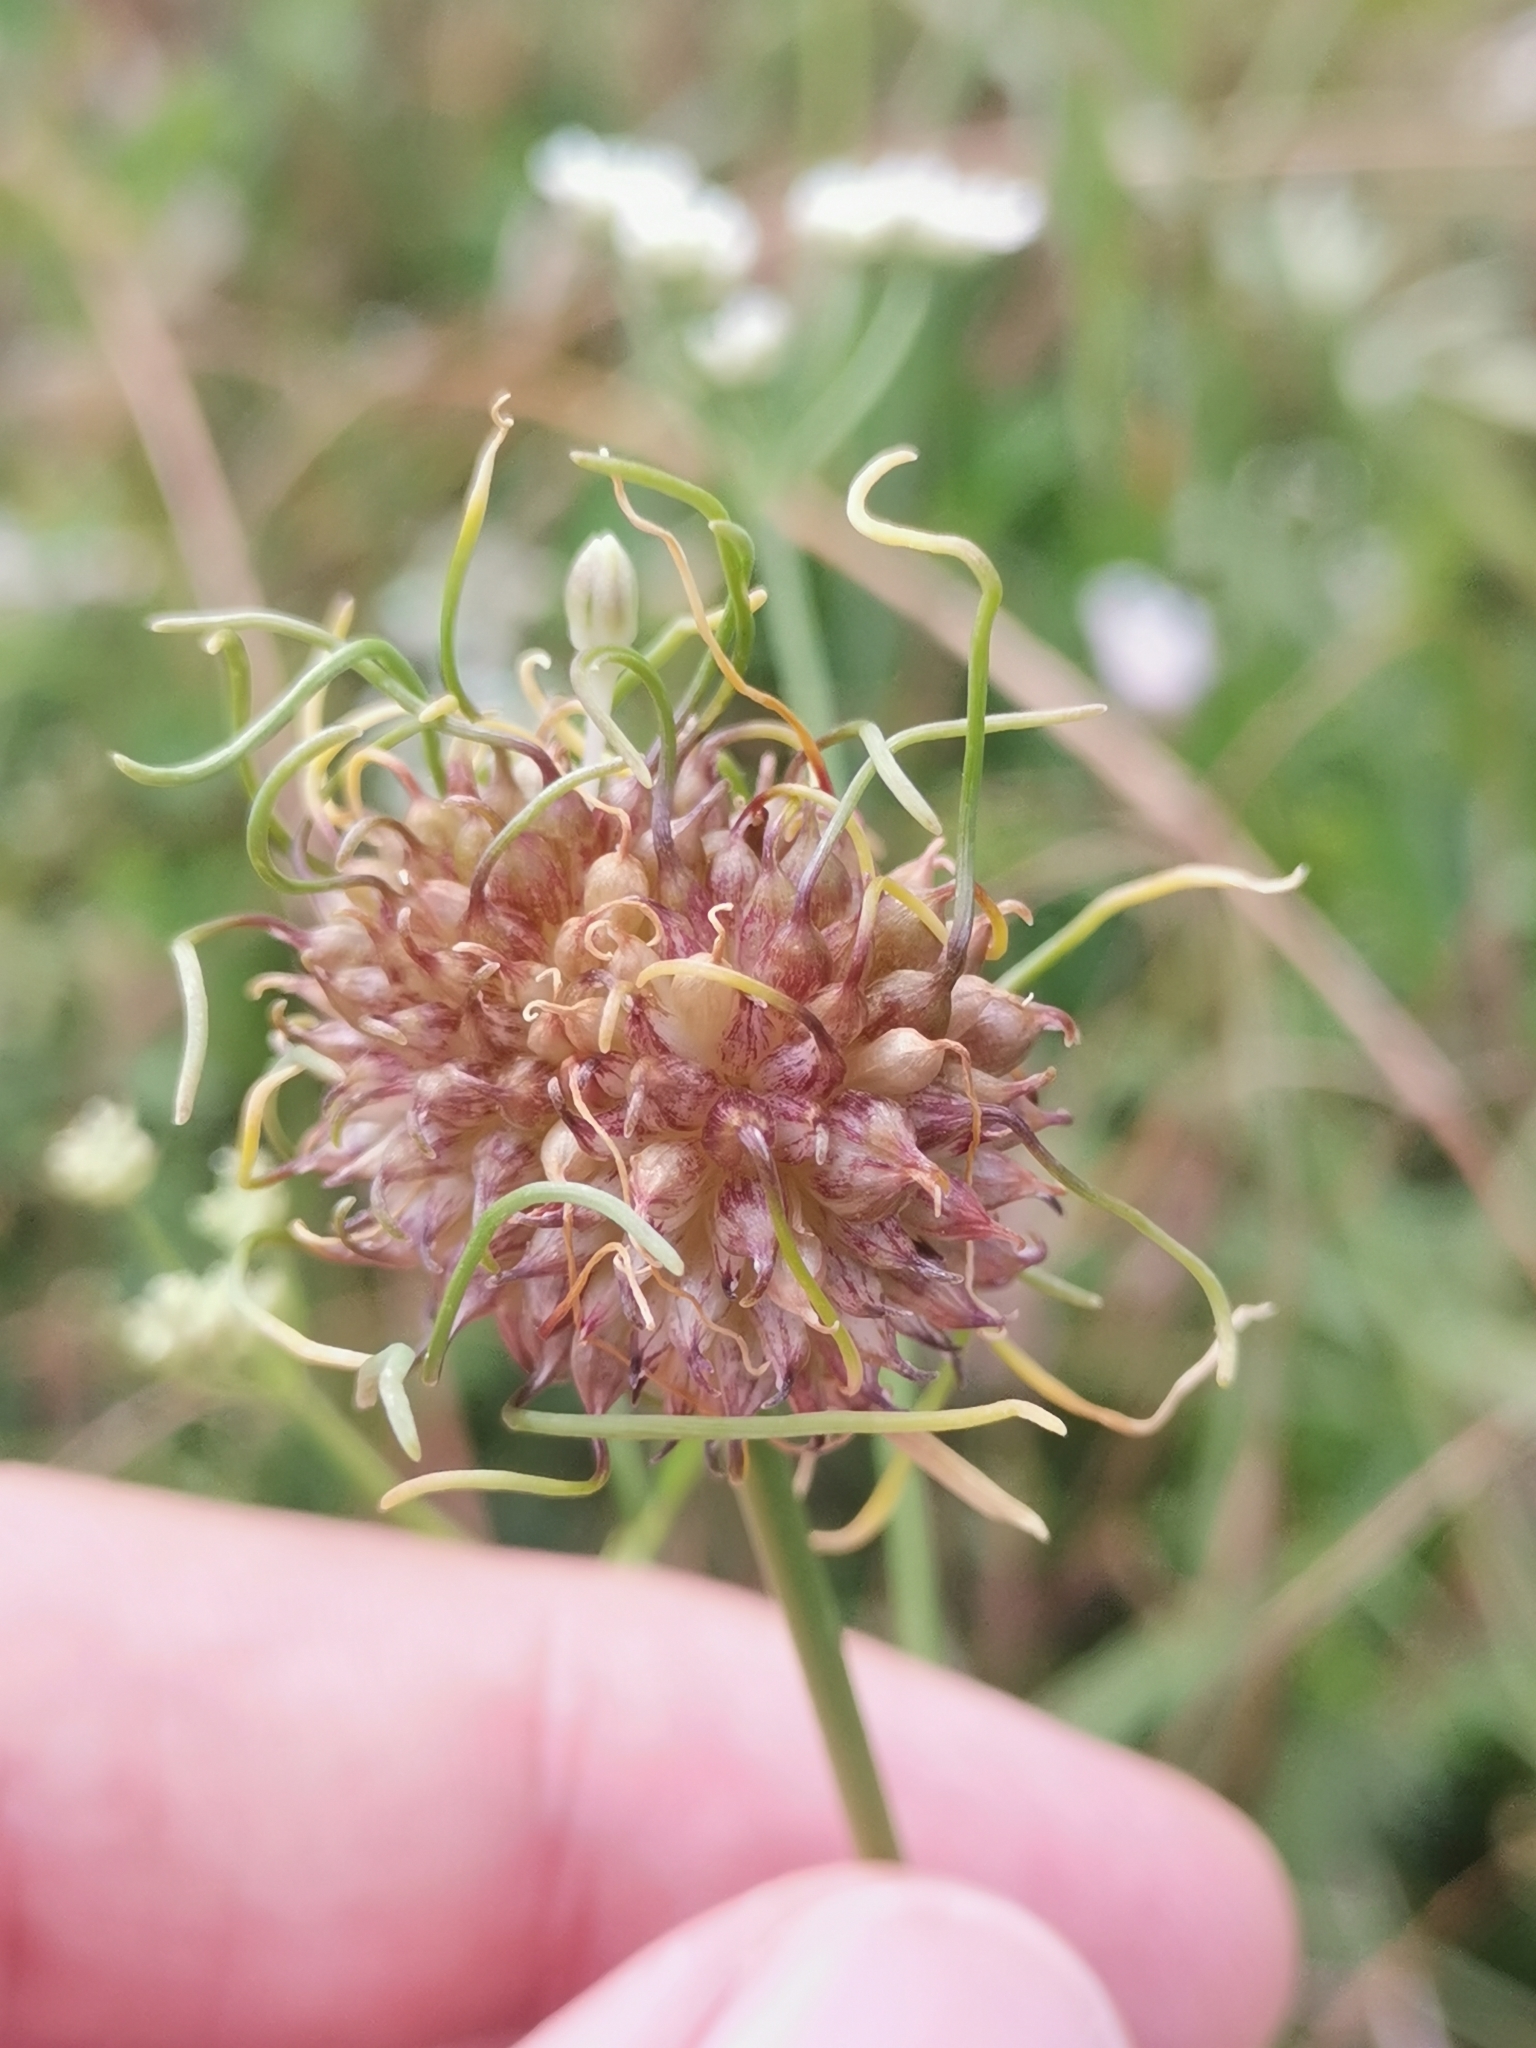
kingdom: Plantae
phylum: Tracheophyta
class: Liliopsida
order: Asparagales
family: Amaryllidaceae
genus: Allium
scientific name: Allium vineale
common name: Crow garlic
